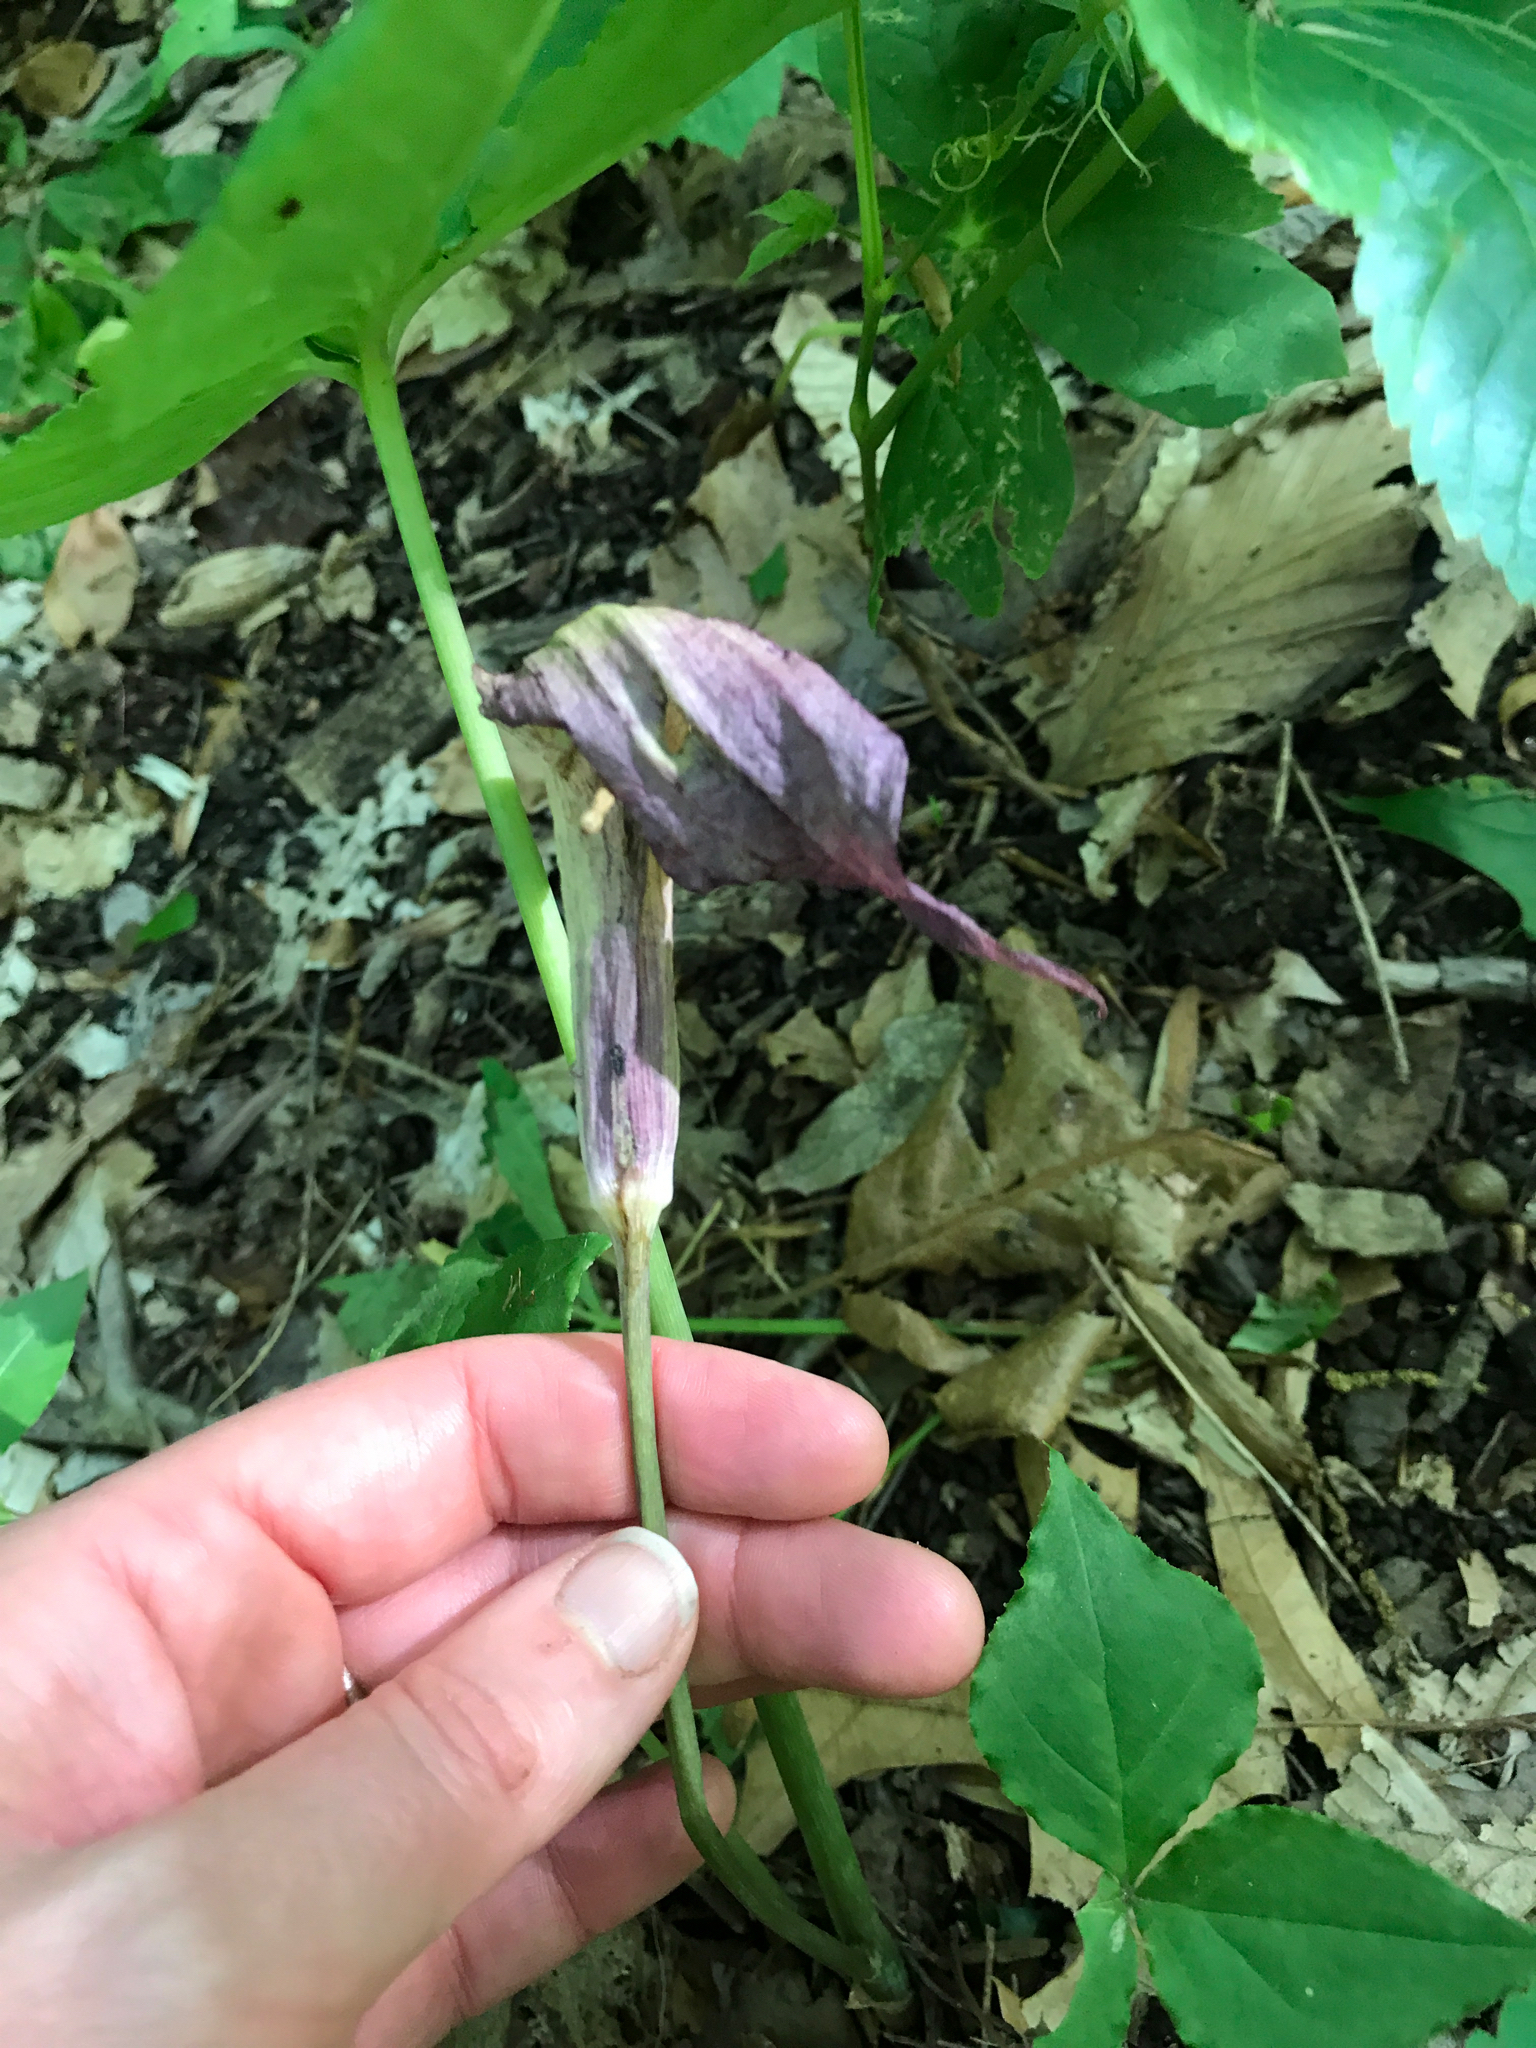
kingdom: Plantae
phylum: Tracheophyta
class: Liliopsida
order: Alismatales
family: Araceae
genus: Arisaema
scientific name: Arisaema triphyllum
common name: Jack-in-the-pulpit
